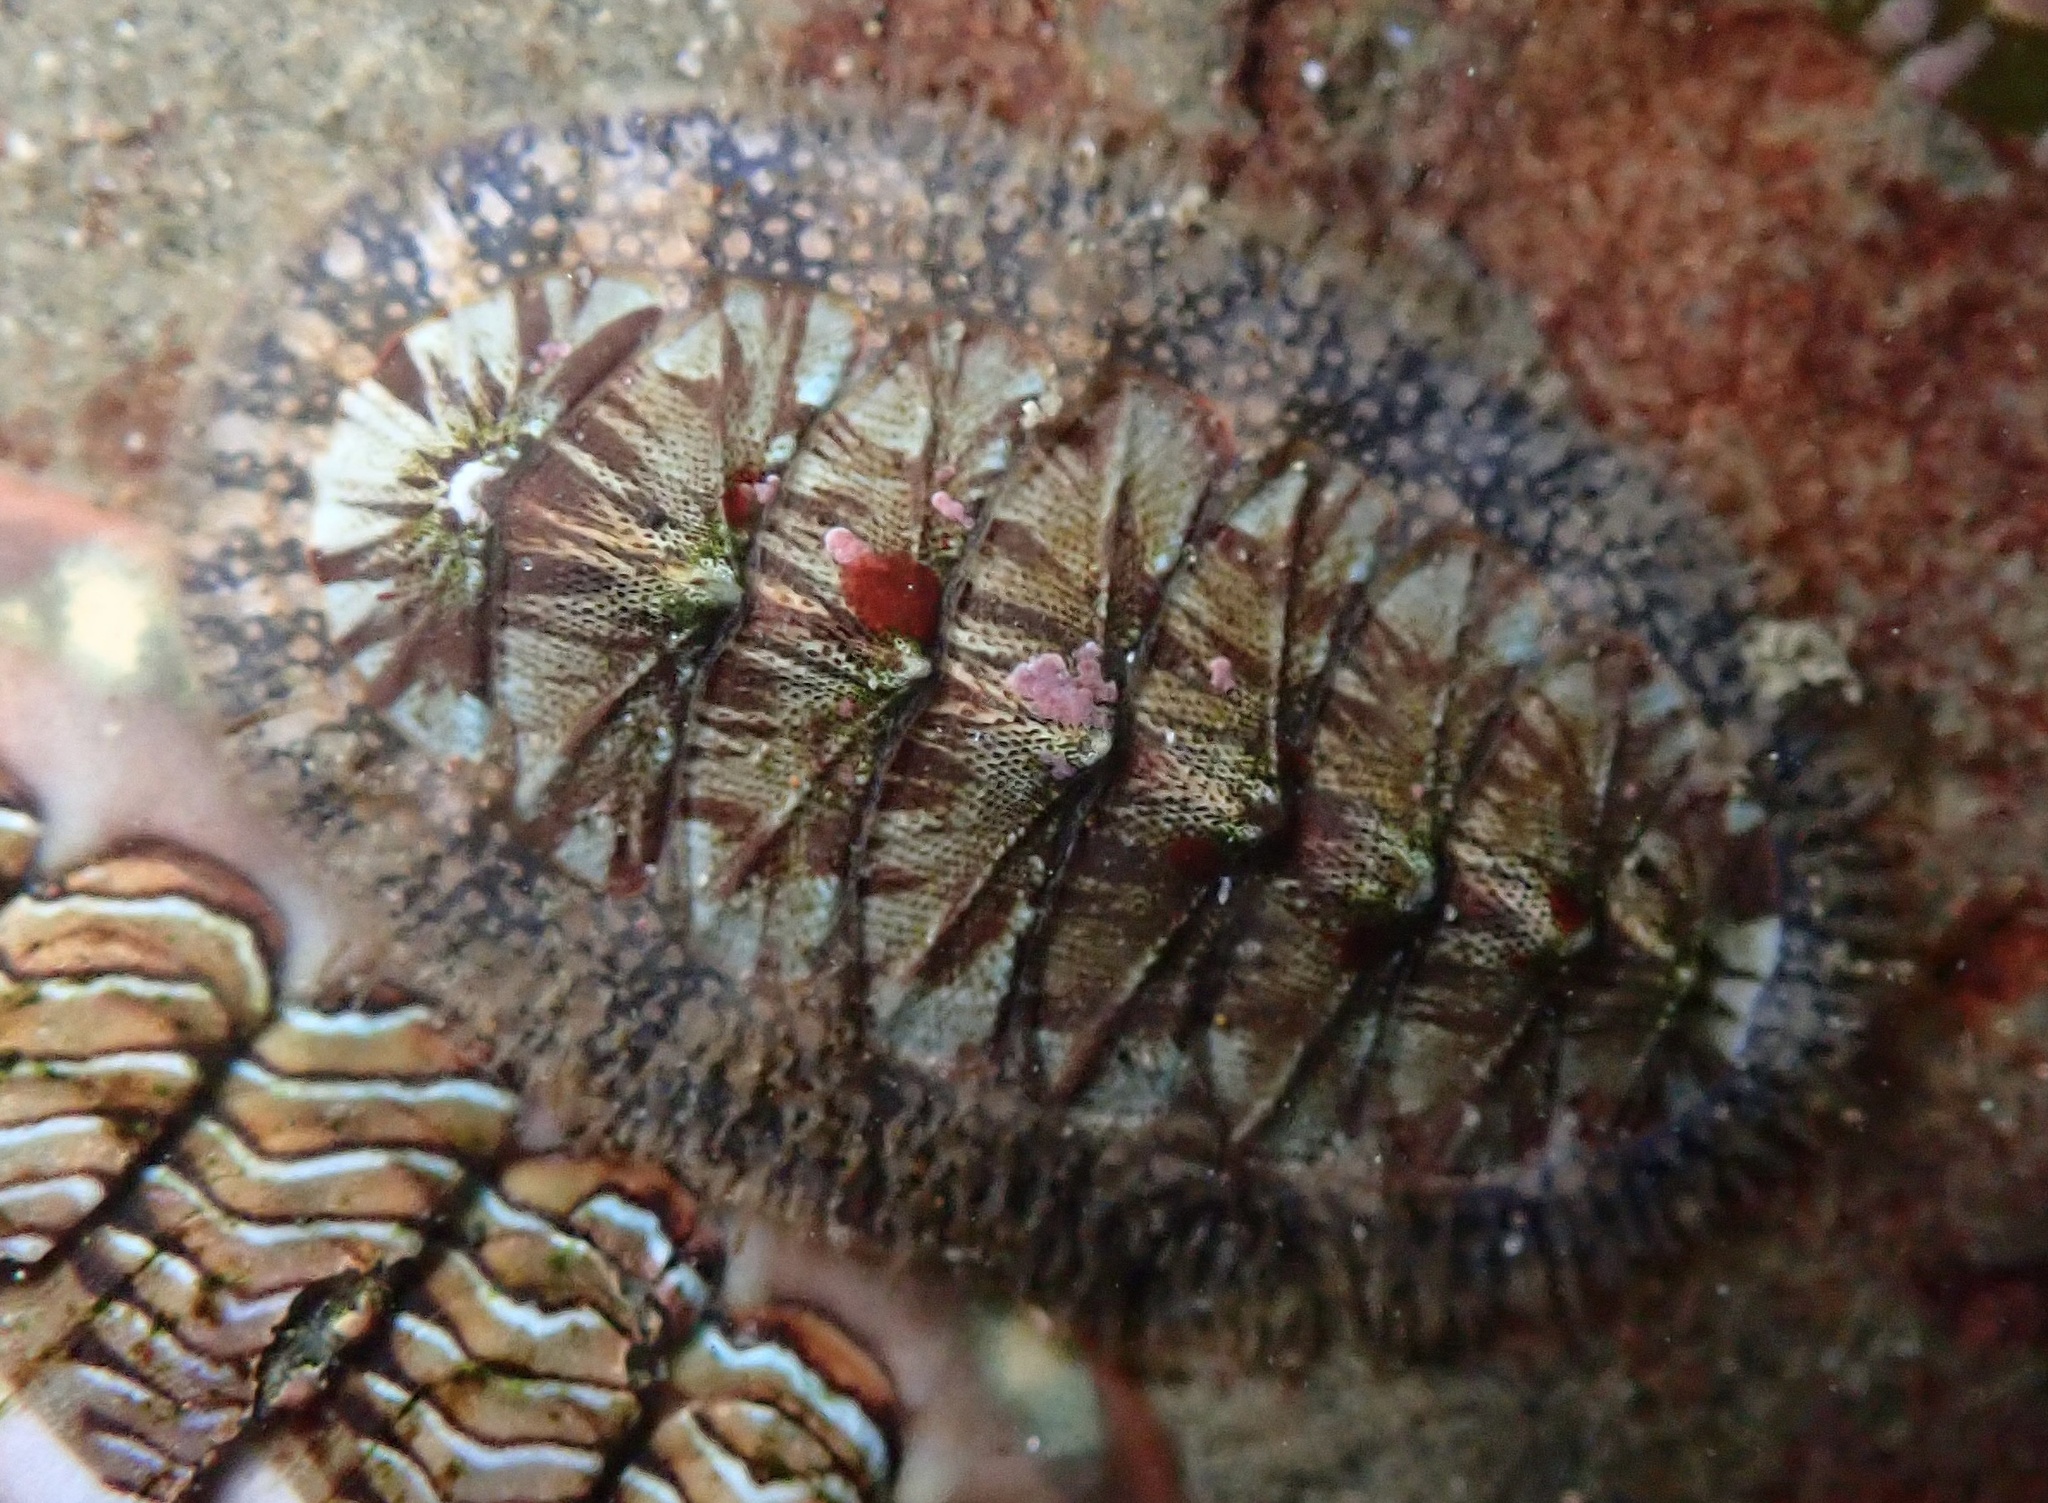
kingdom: Animalia
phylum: Mollusca
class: Polyplacophora
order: Chitonida
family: Mopaliidae
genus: Mopalia
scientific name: Mopalia lignosa
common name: Woody chiton
